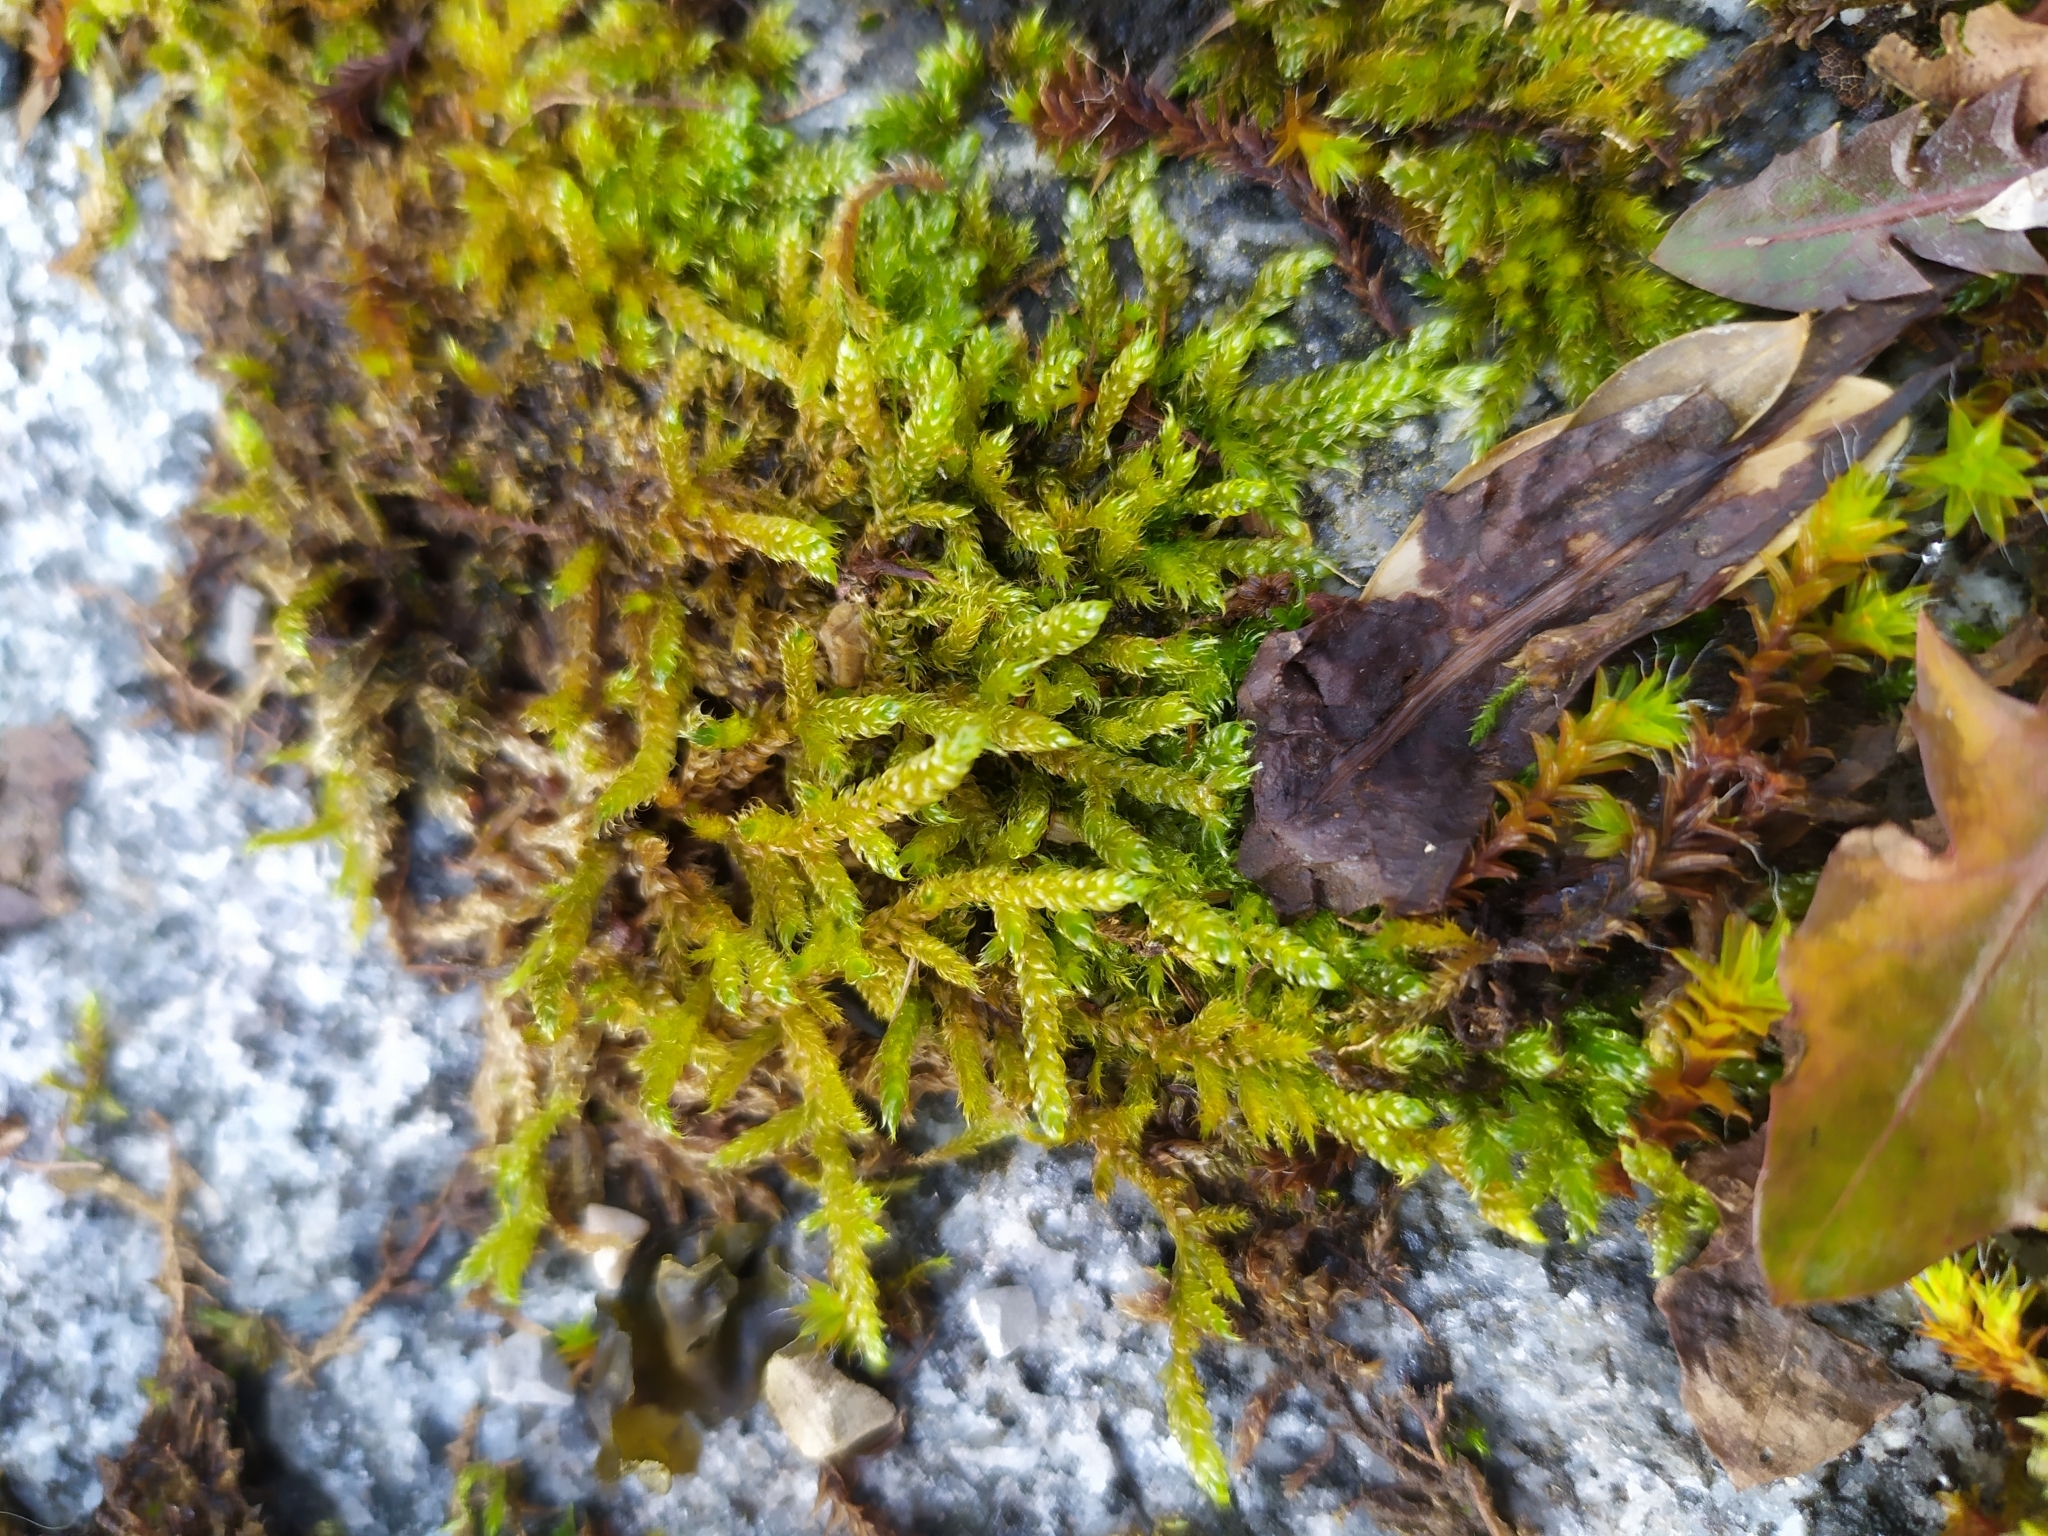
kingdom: Plantae
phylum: Bryophyta
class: Bryopsida
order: Hypnales
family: Hypnaceae
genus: Hypnum
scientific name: Hypnum cupressiforme
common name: Cypress-leaved plait-moss
